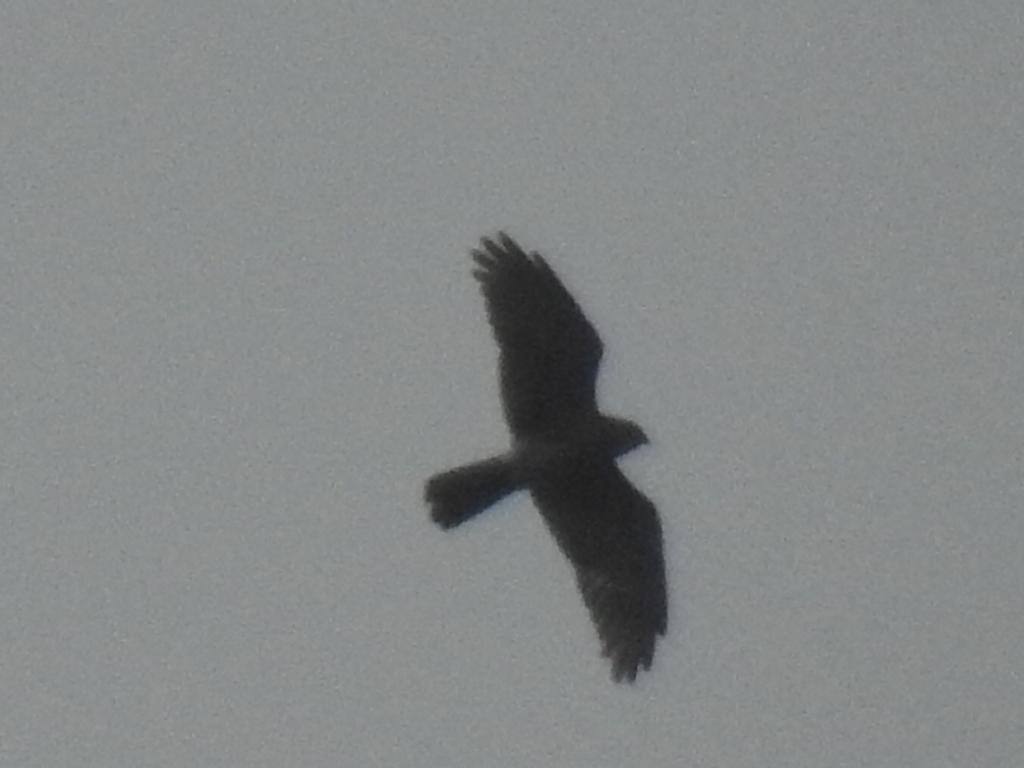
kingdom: Animalia
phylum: Chordata
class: Aves
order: Accipitriformes
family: Accipitridae
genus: Butastur
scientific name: Butastur indicus
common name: Grey-faced buzzard
